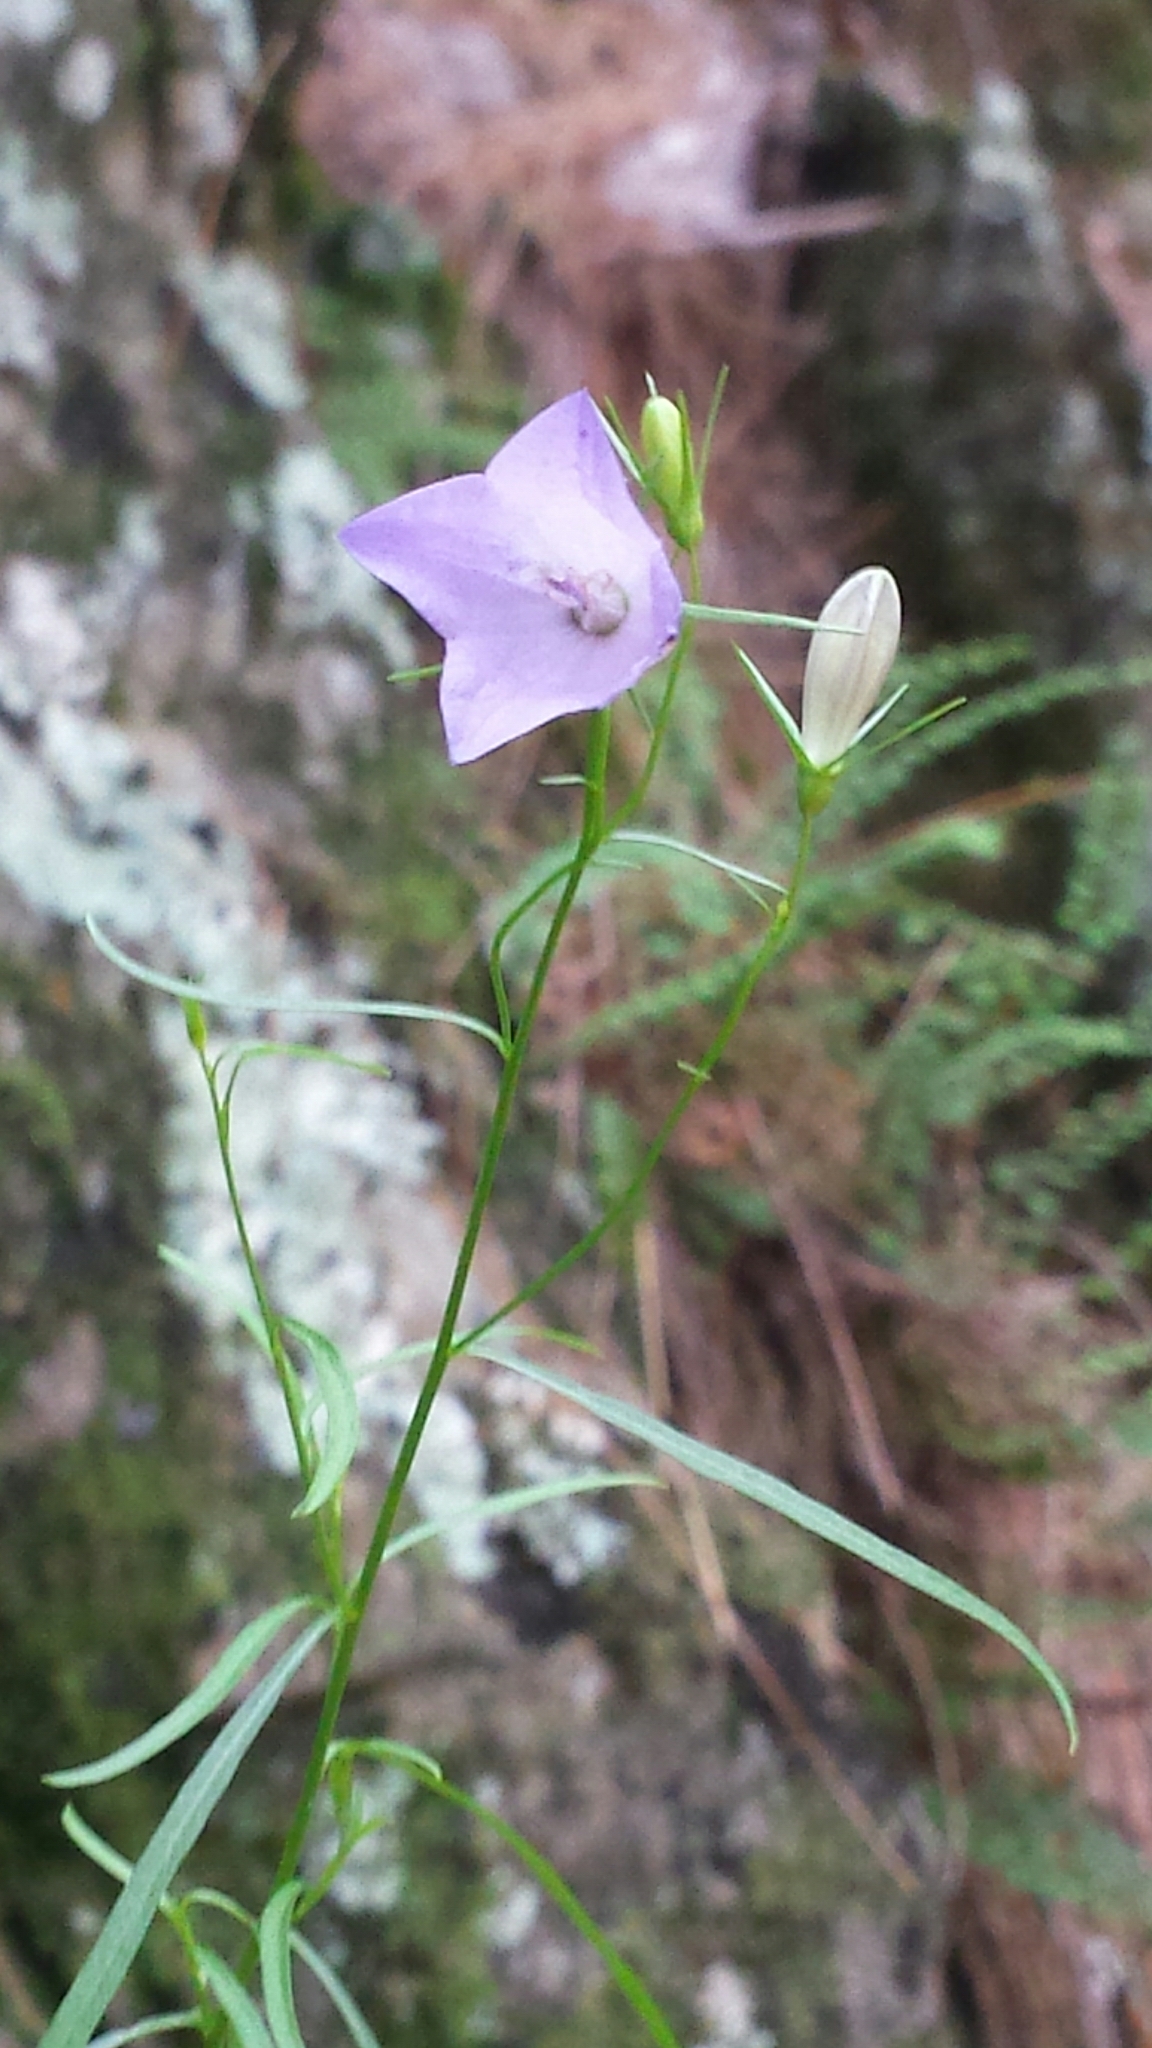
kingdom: Plantae
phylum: Tracheophyta
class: Magnoliopsida
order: Asterales
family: Campanulaceae
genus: Campanula
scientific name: Campanula intercedens
